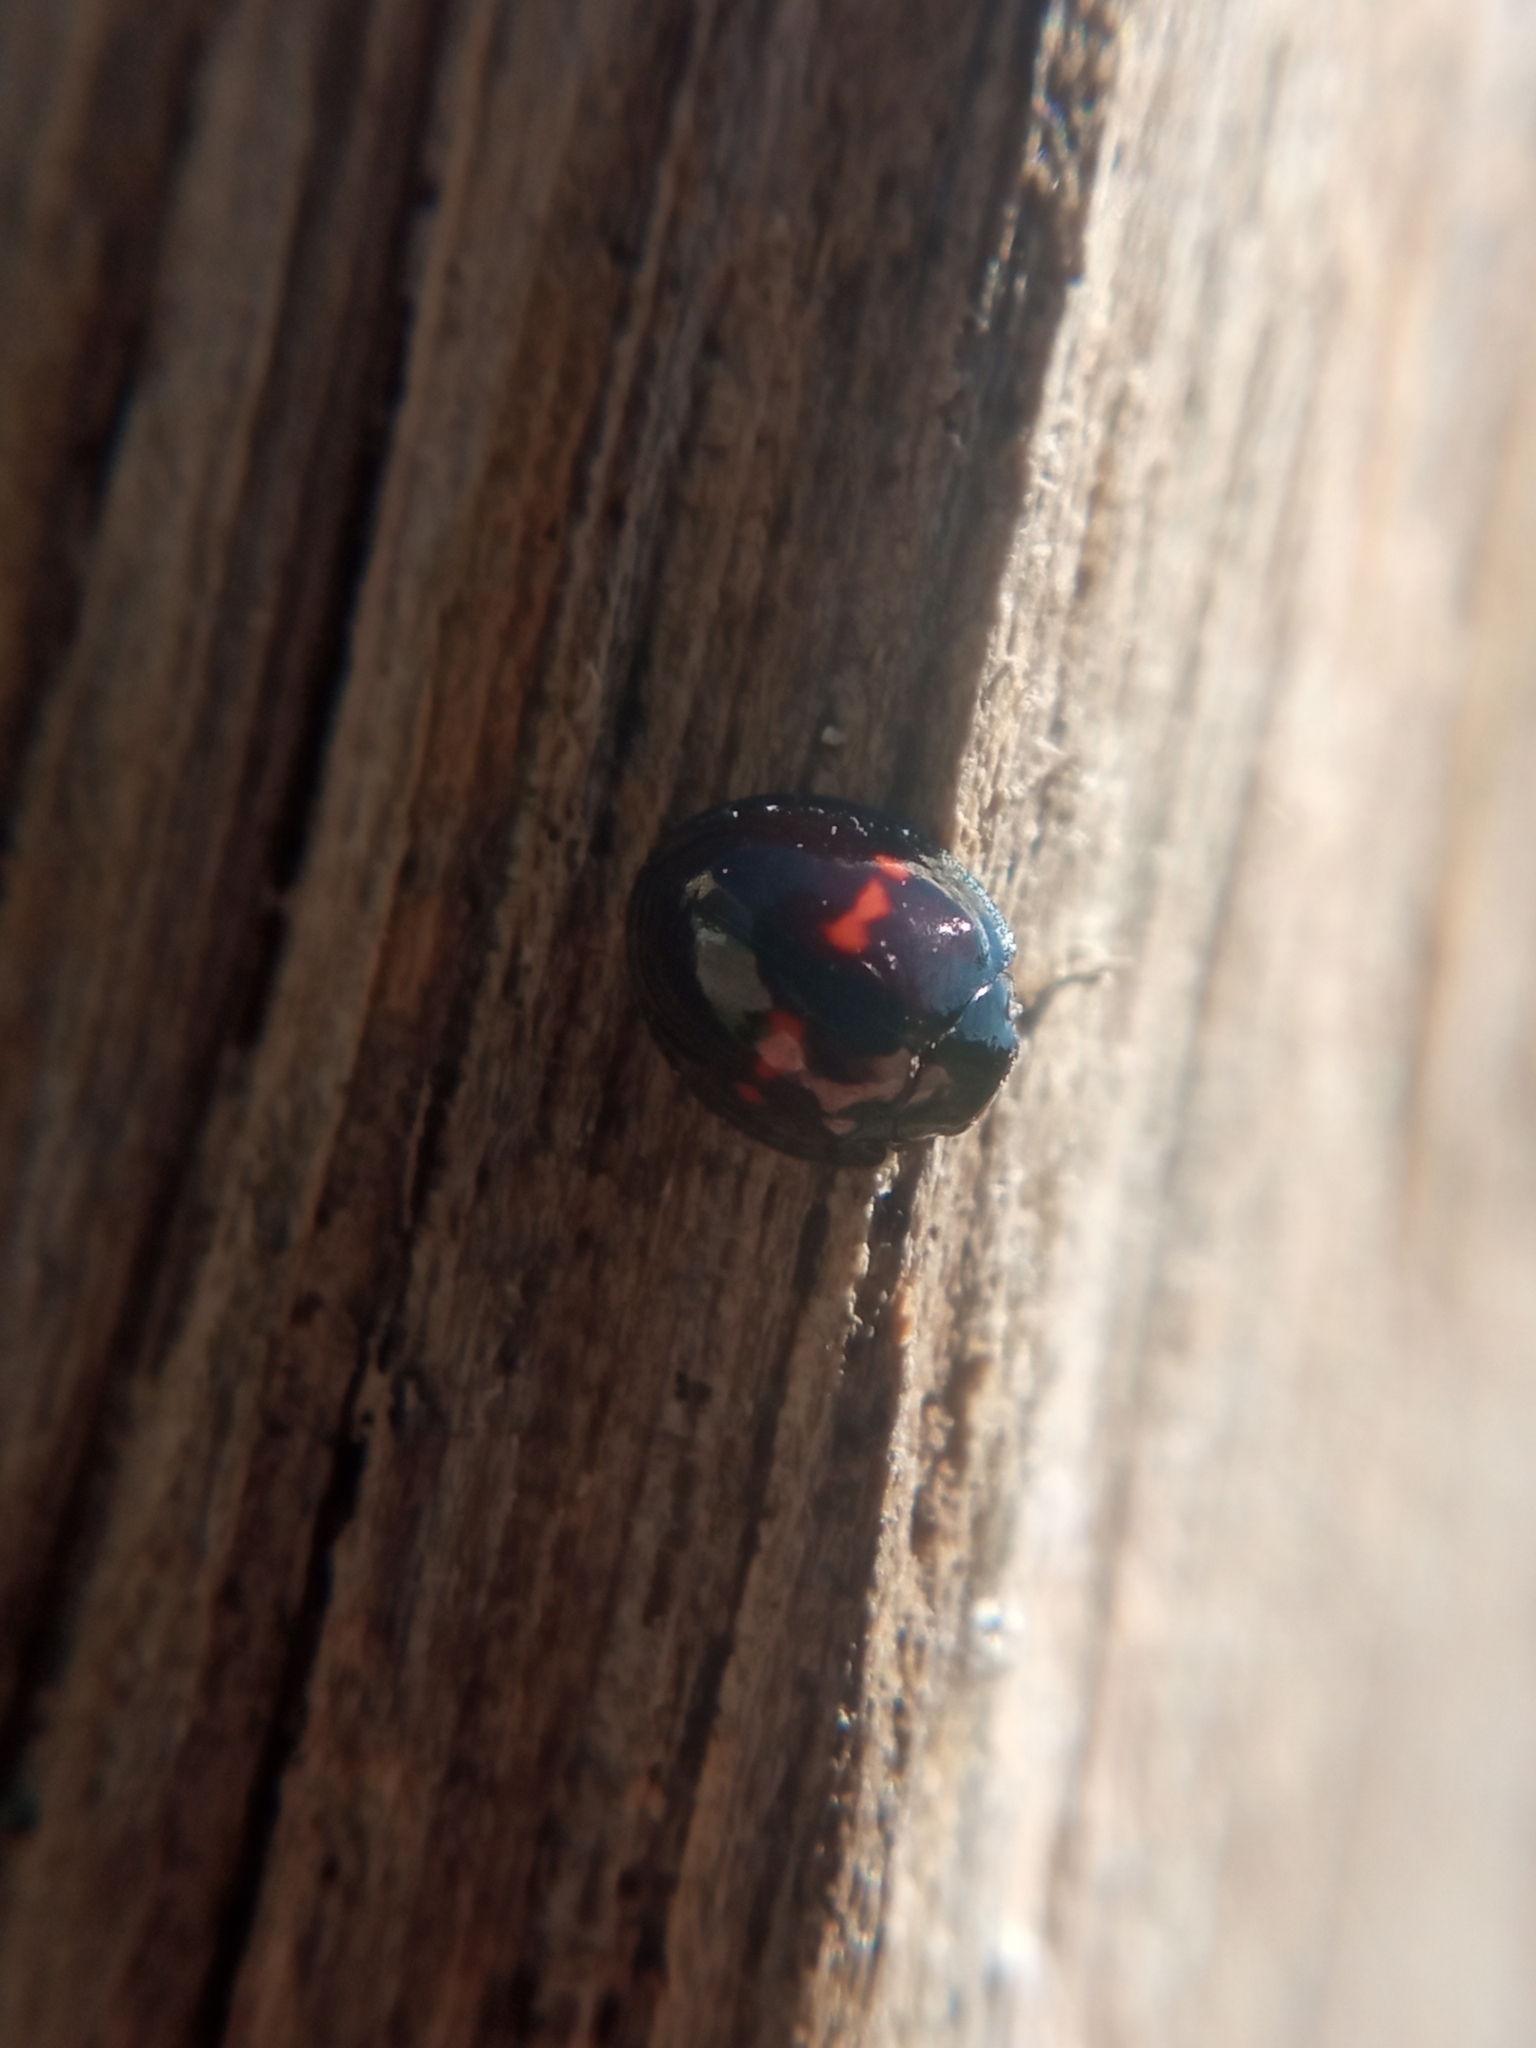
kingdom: Animalia
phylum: Arthropoda
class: Insecta
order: Coleoptera
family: Coccinellidae
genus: Chilocorus
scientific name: Chilocorus bipustulatus
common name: Heather ladybird
